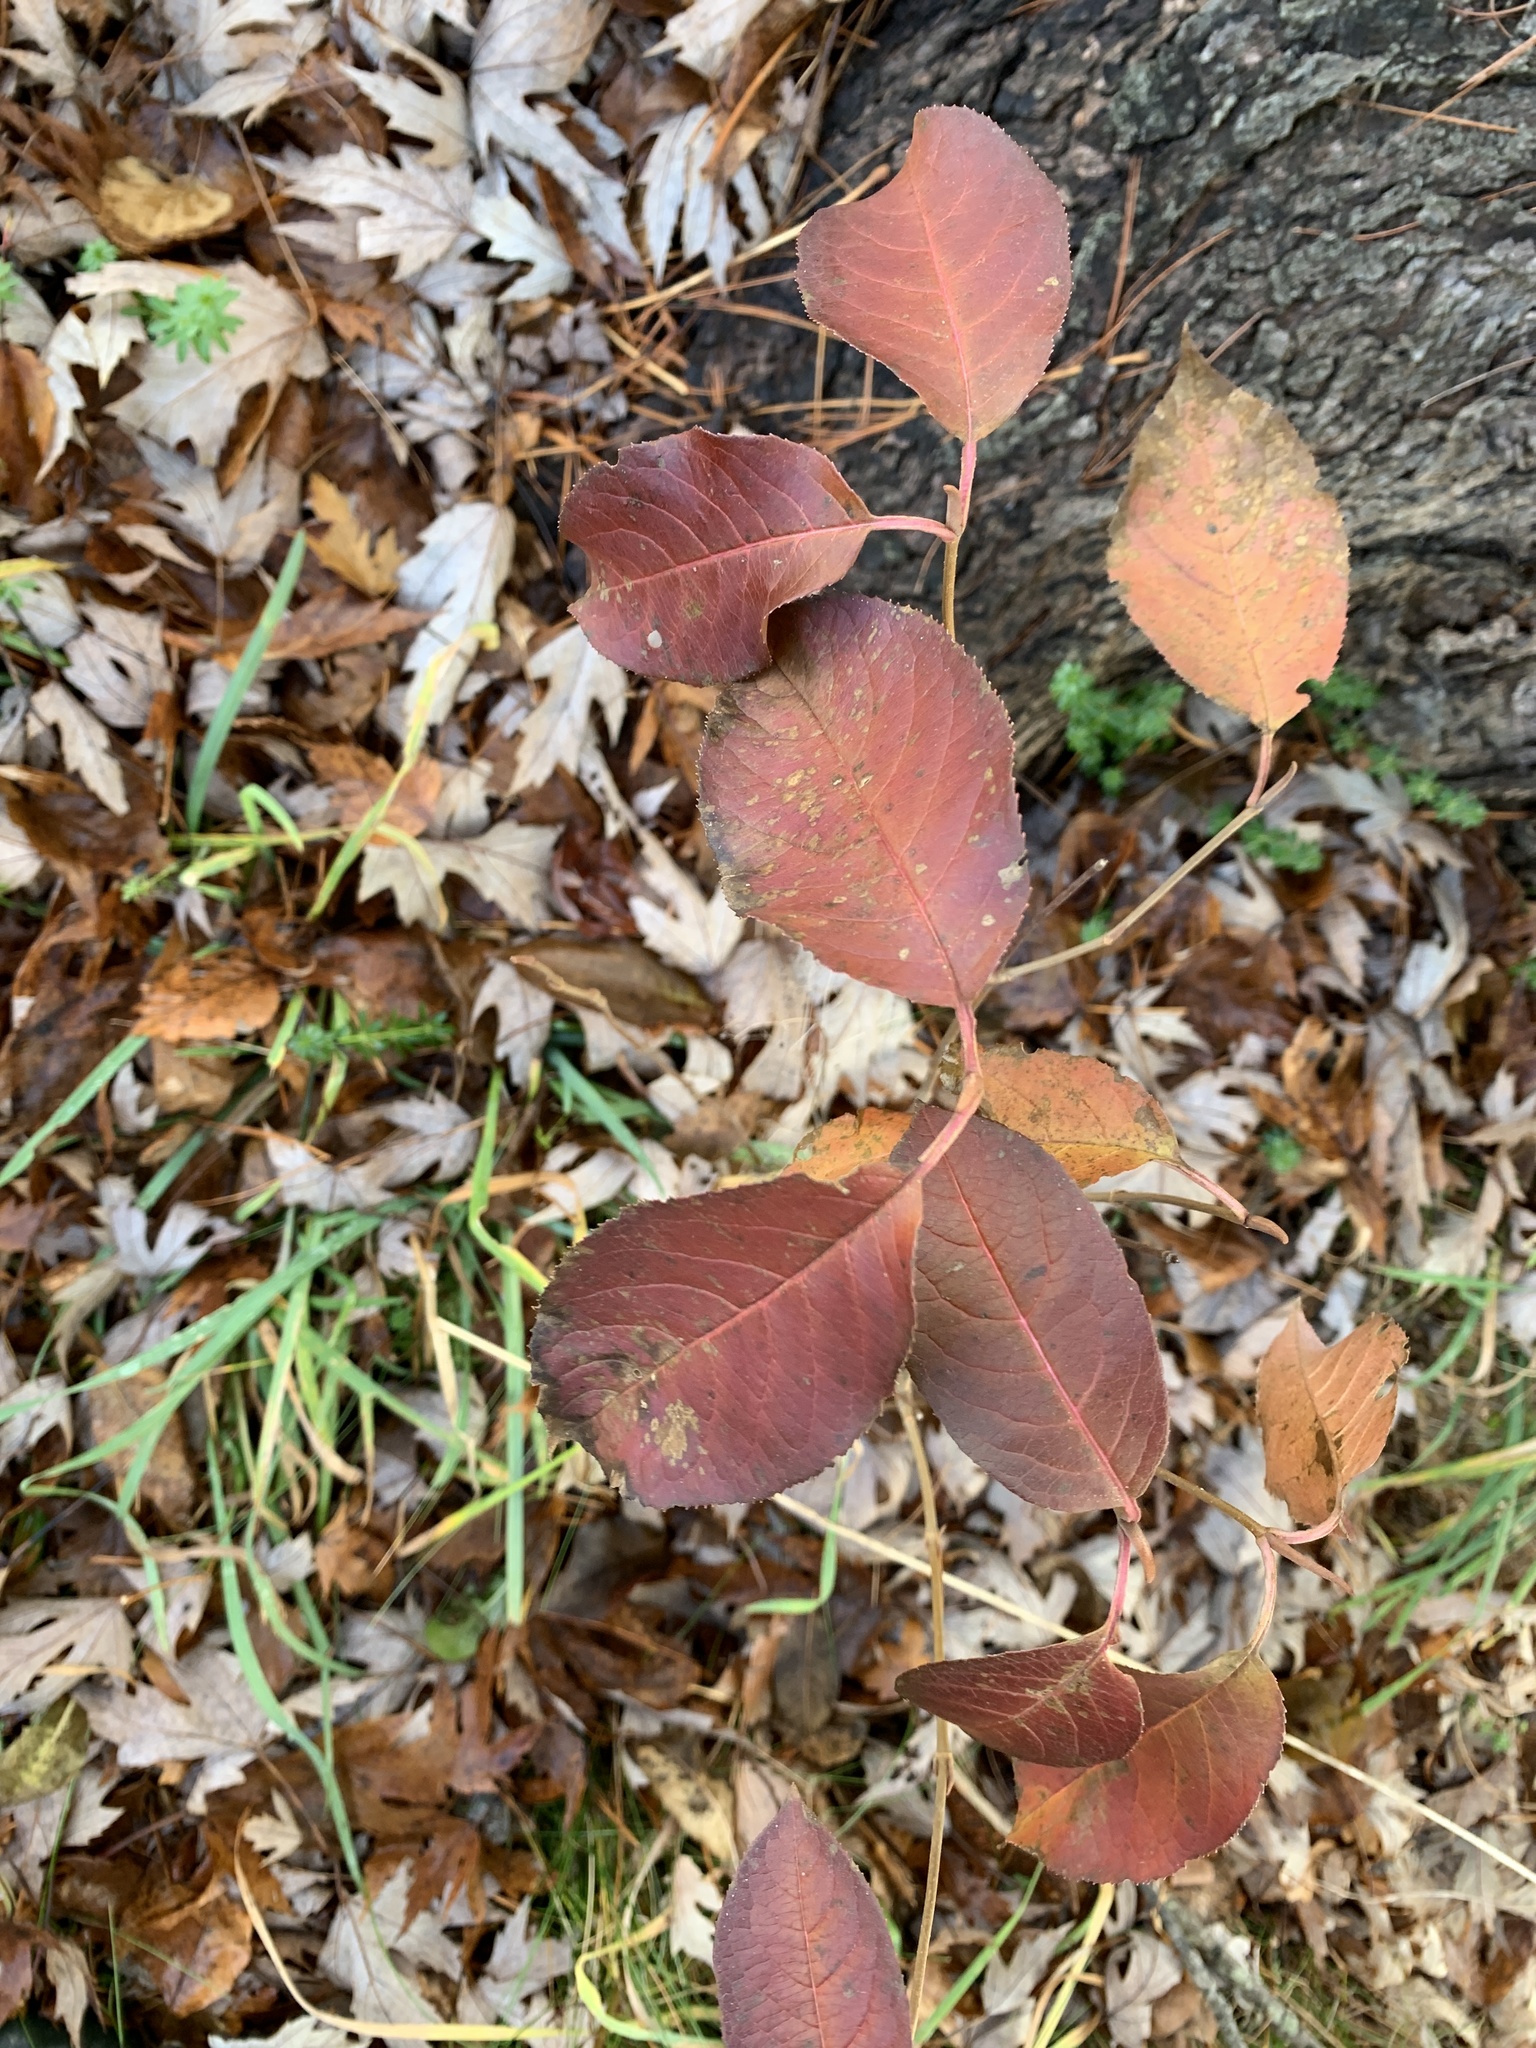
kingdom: Plantae
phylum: Tracheophyta
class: Magnoliopsida
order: Dipsacales
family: Viburnaceae
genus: Viburnum
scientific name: Viburnum lentago
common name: Black haw
